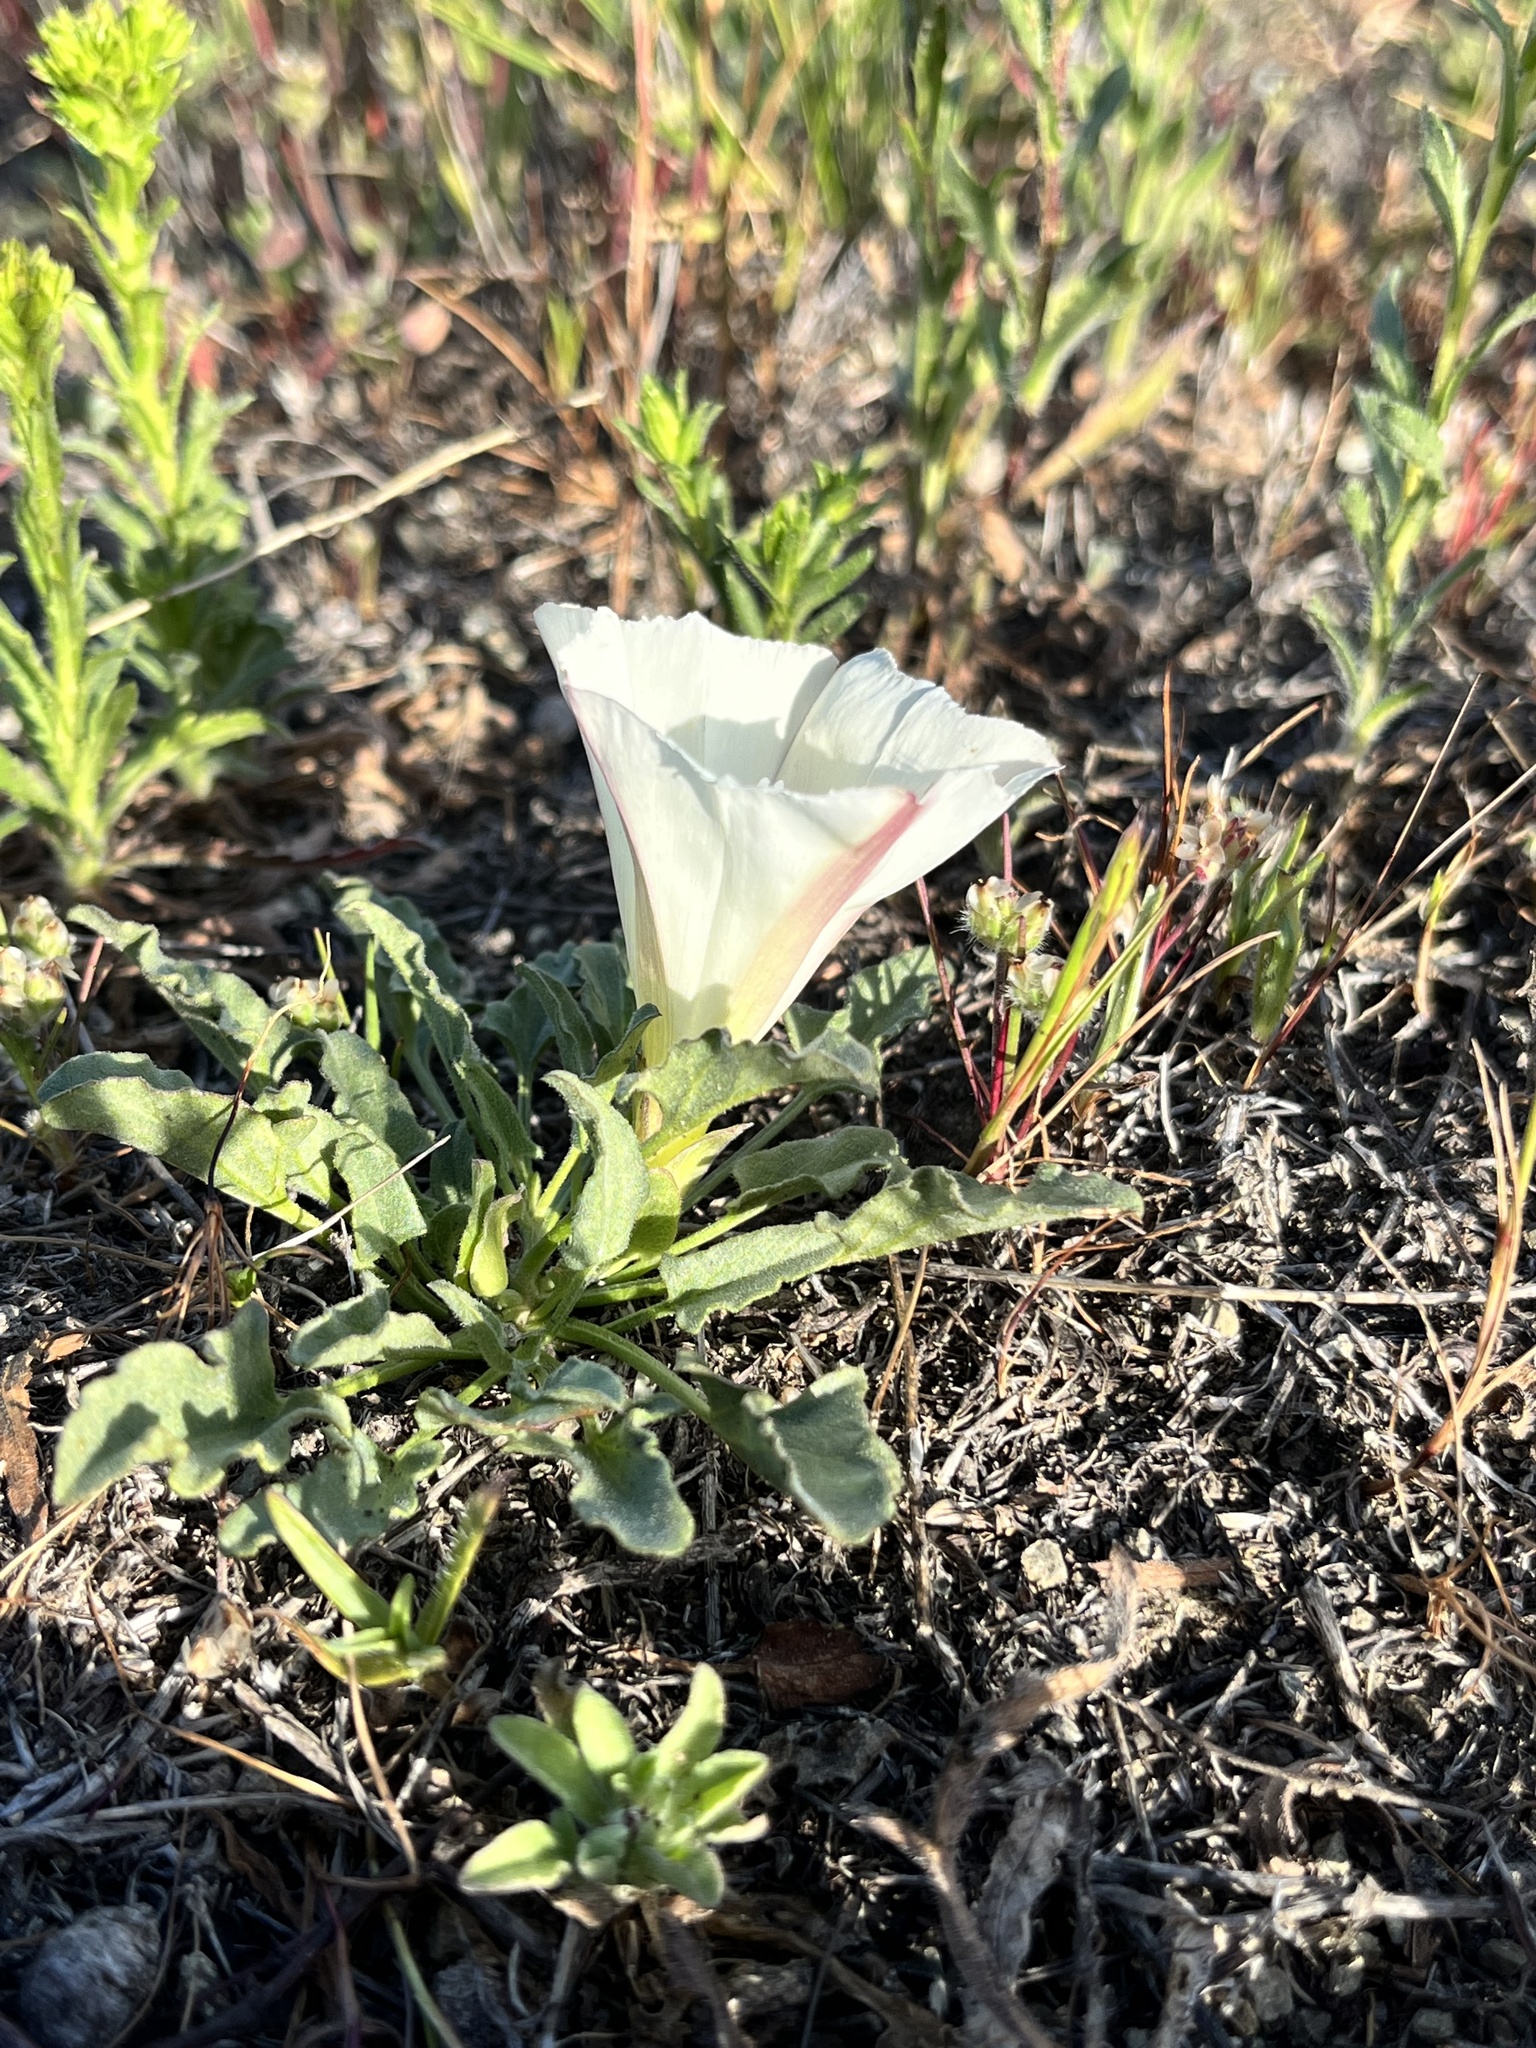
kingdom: Plantae
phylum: Tracheophyta
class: Magnoliopsida
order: Solanales
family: Convolvulaceae
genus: Calystegia
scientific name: Calystegia subacaulis
